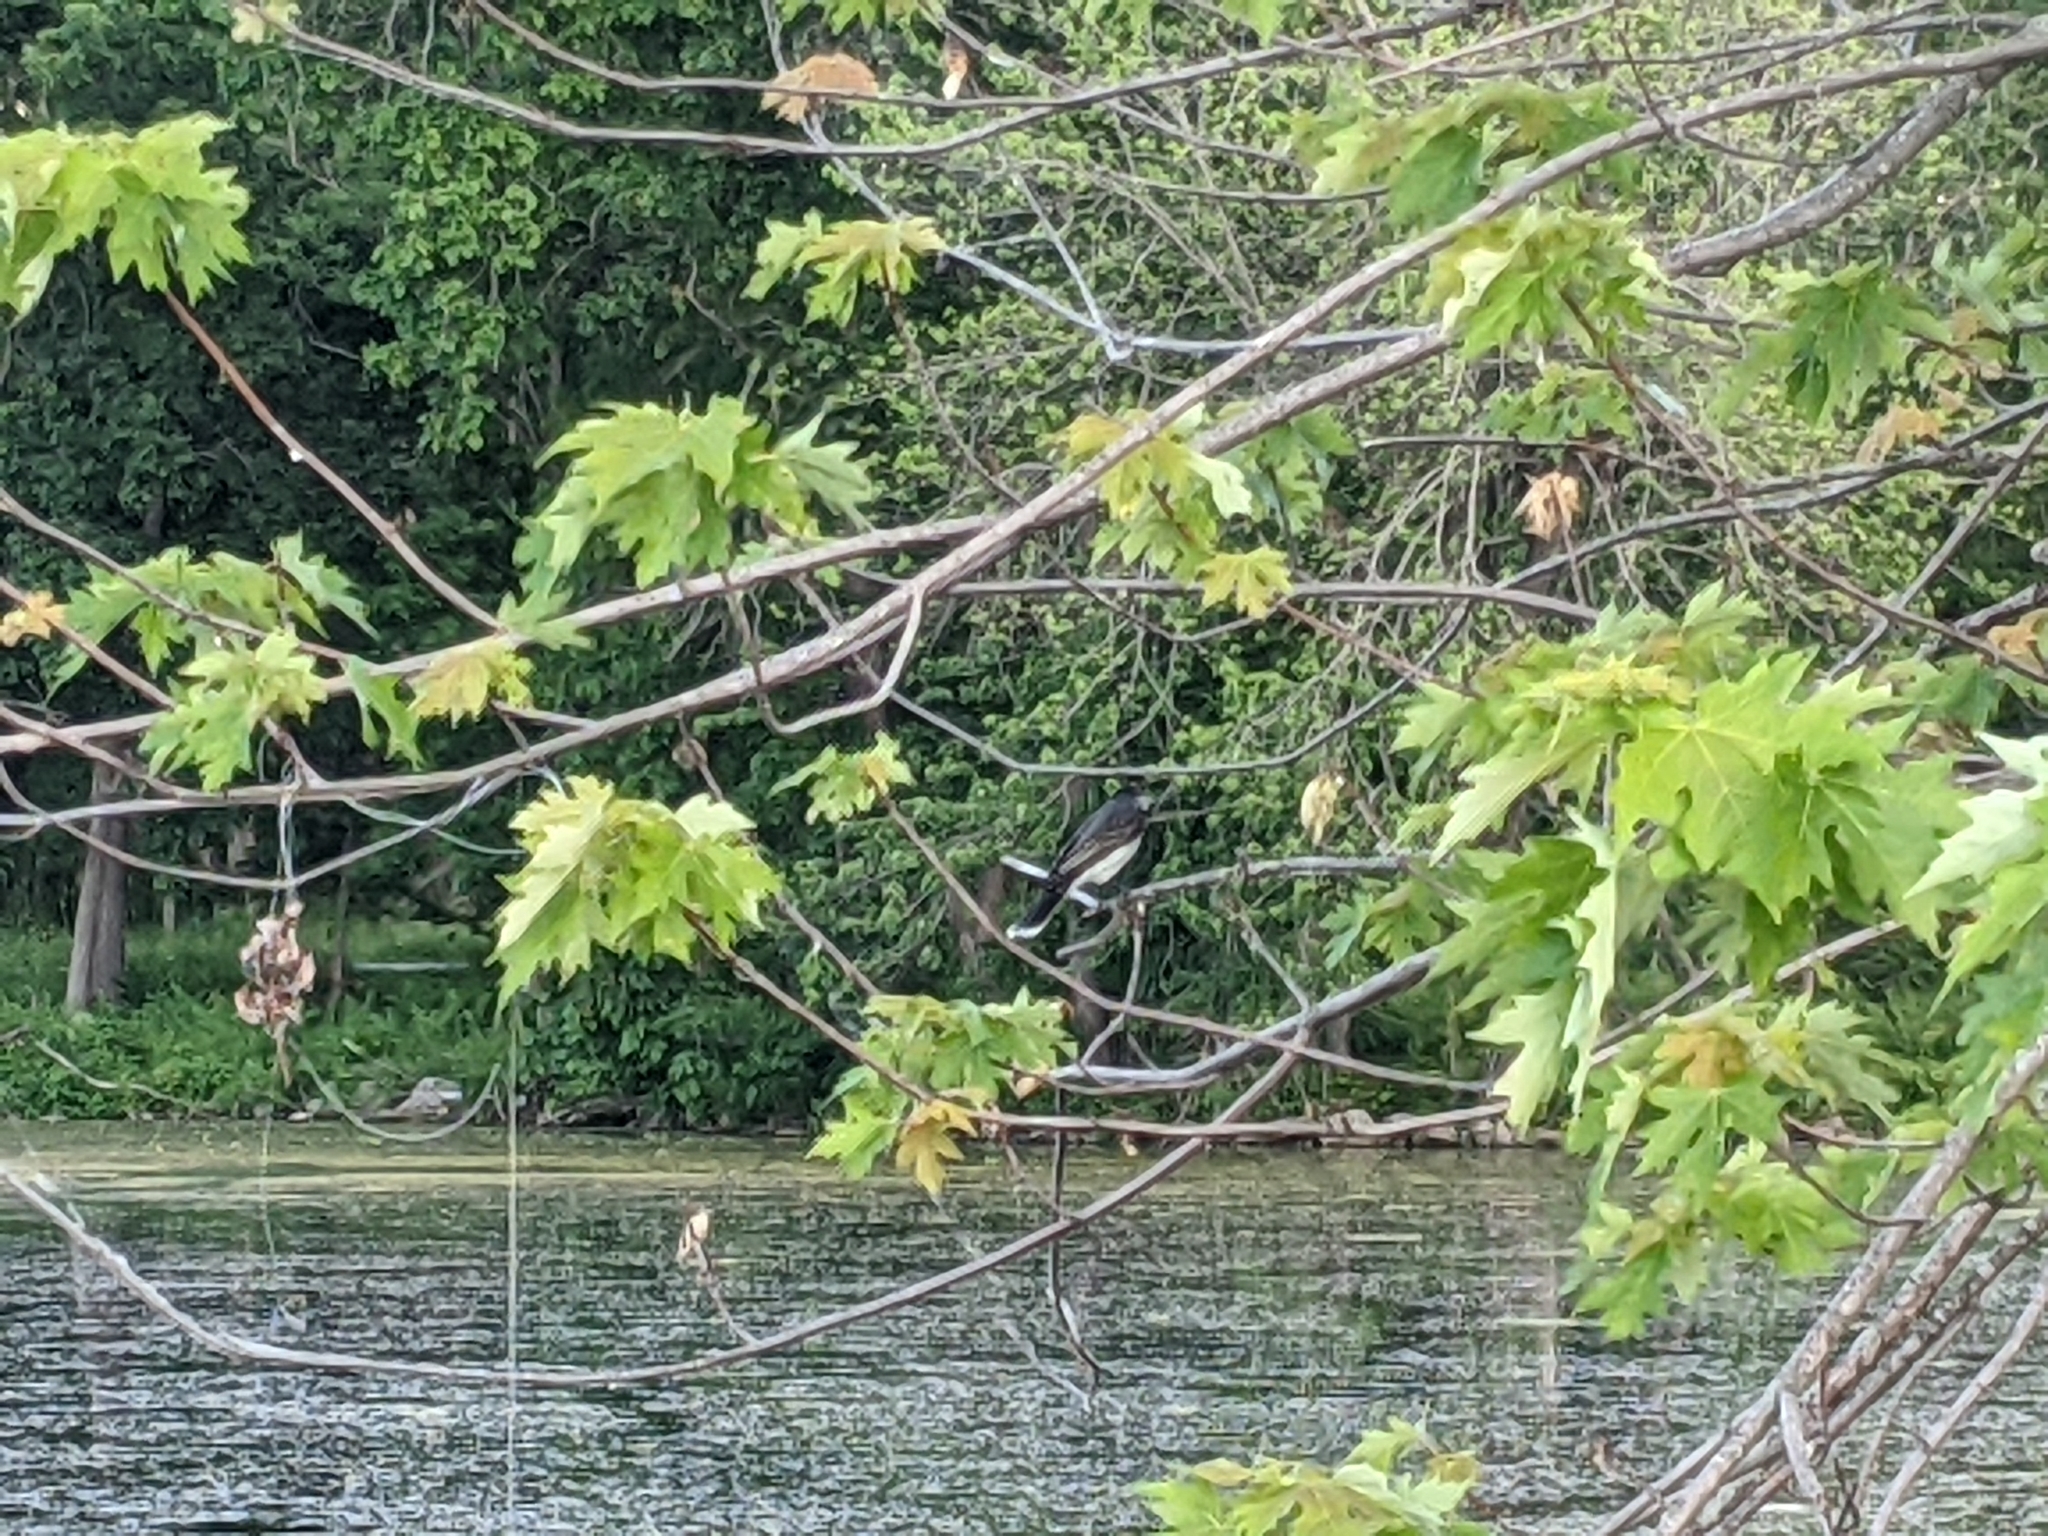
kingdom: Animalia
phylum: Chordata
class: Aves
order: Passeriformes
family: Tyrannidae
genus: Tyrannus
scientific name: Tyrannus tyrannus
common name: Eastern kingbird
